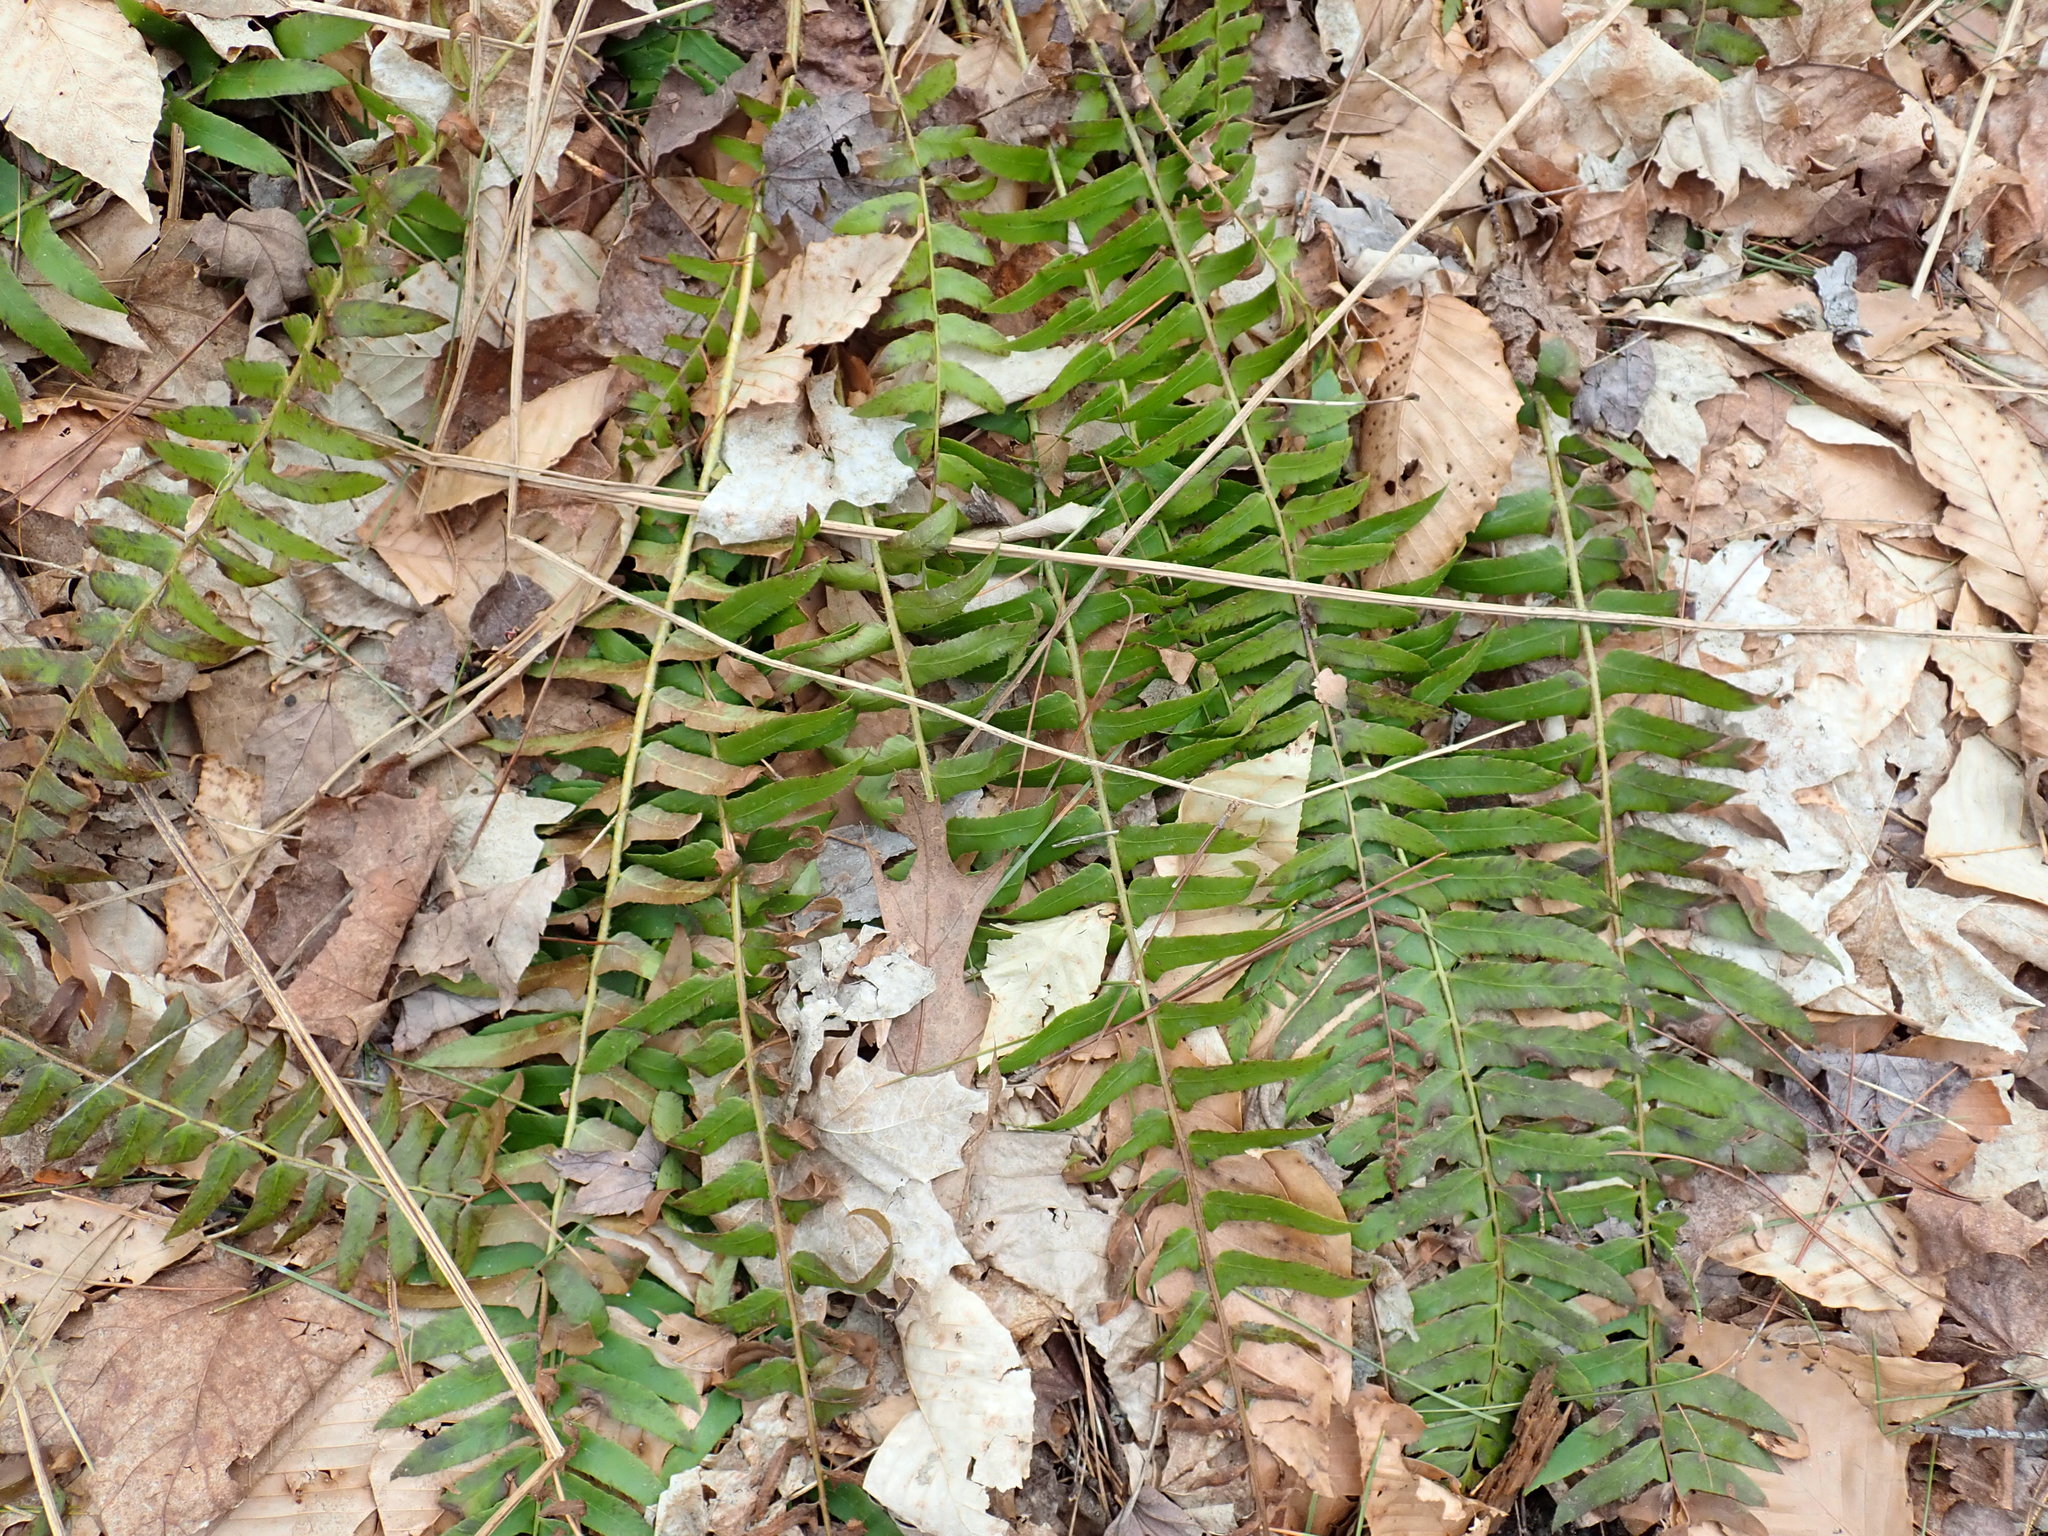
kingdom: Plantae
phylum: Tracheophyta
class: Polypodiopsida
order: Polypodiales
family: Dryopteridaceae
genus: Polystichum
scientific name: Polystichum acrostichoides
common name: Christmas fern
